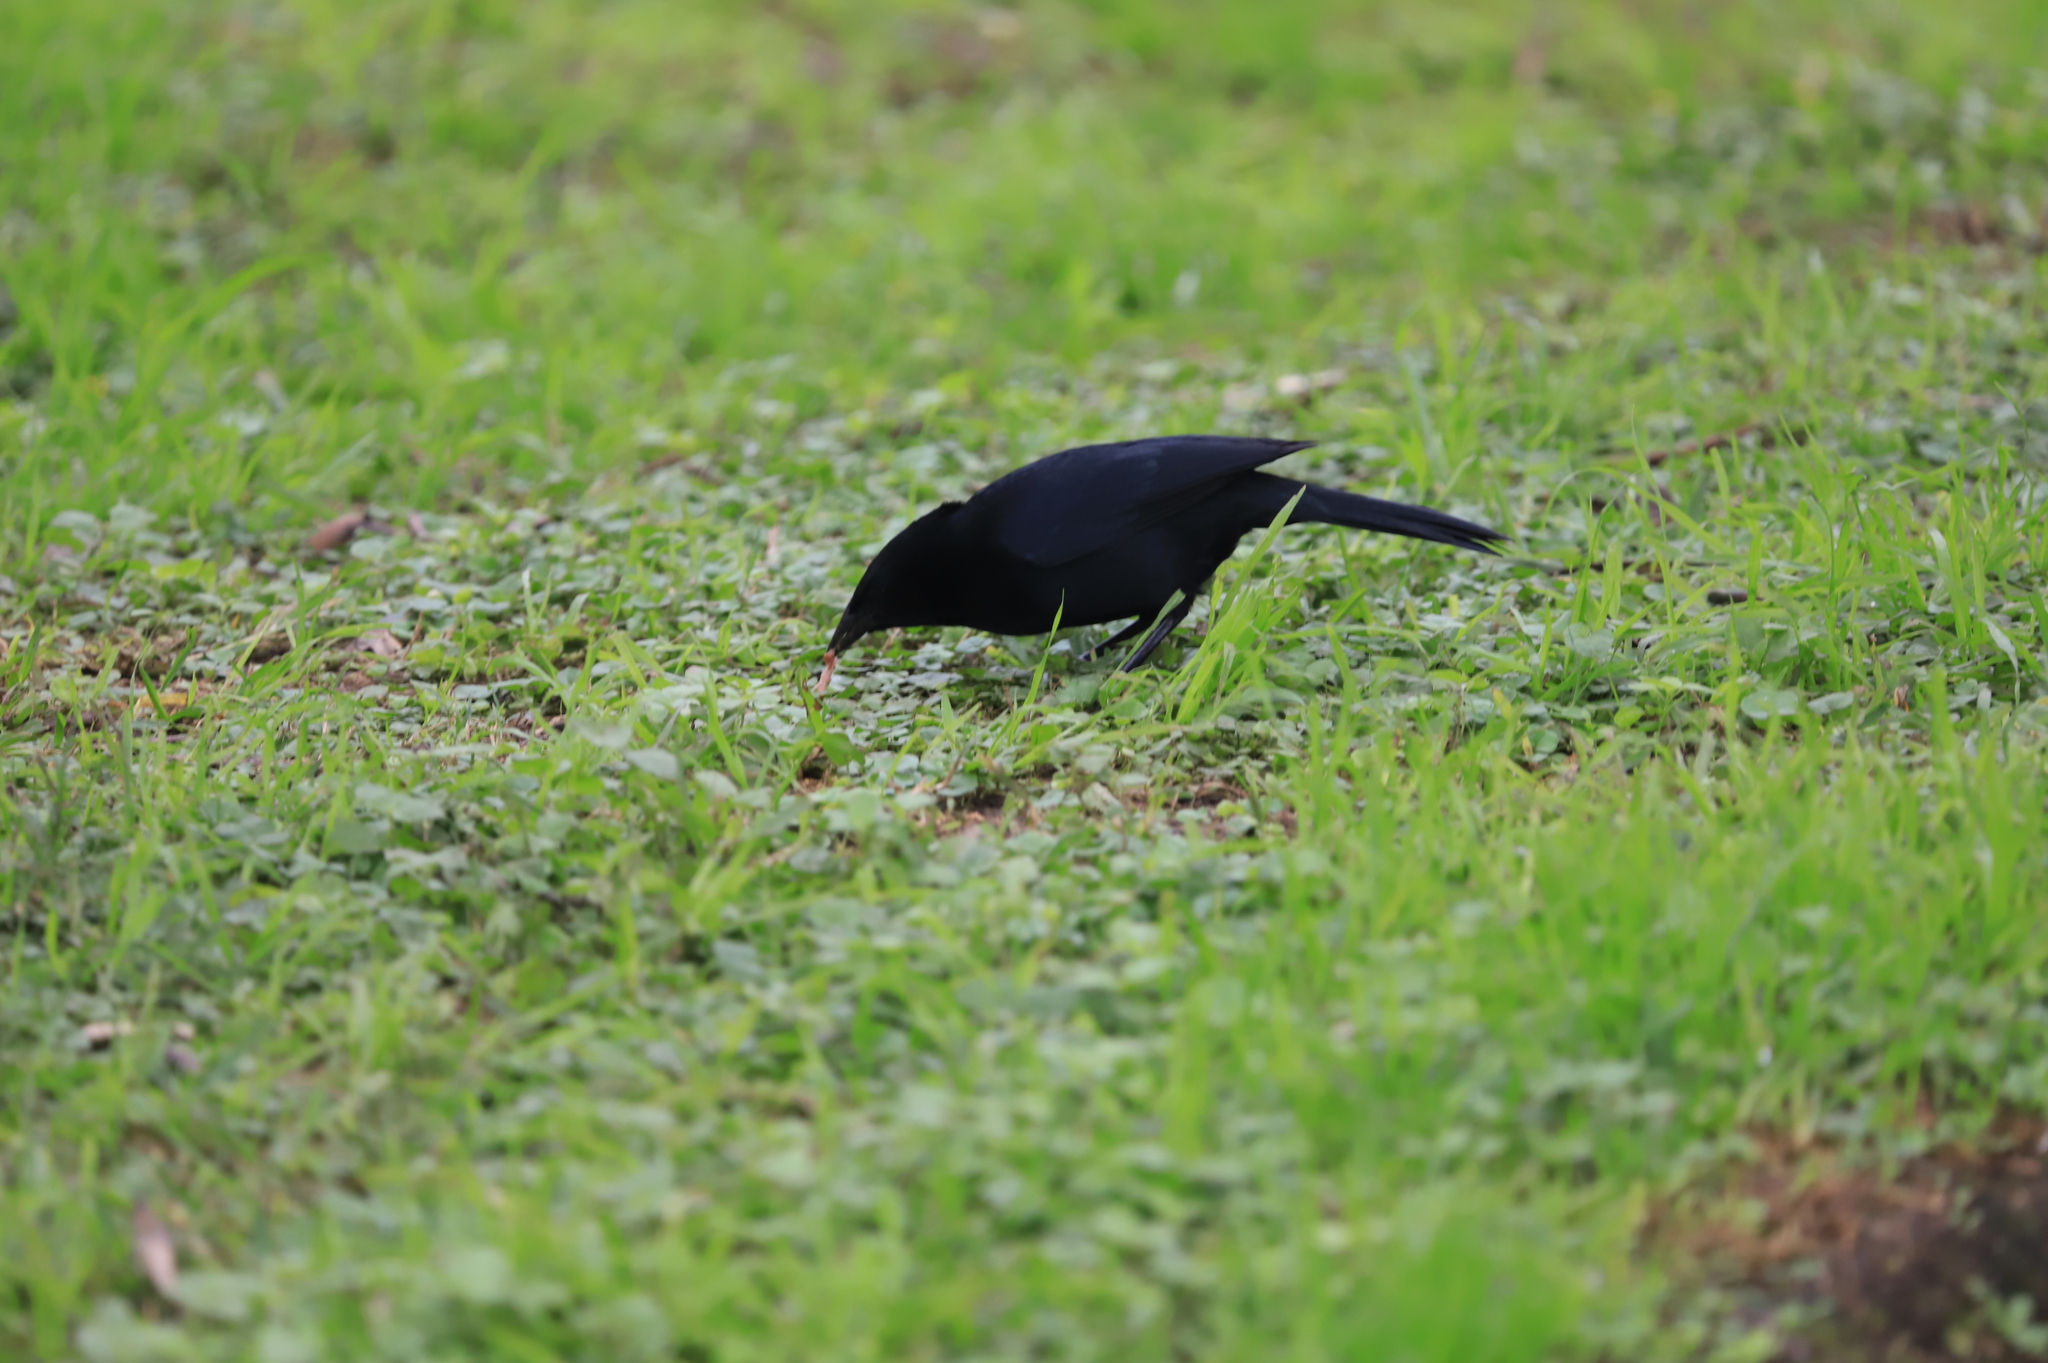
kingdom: Animalia
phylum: Chordata
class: Aves
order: Passeriformes
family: Icteridae
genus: Dives
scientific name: Dives warczewiczi
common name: Scrub blackbird
